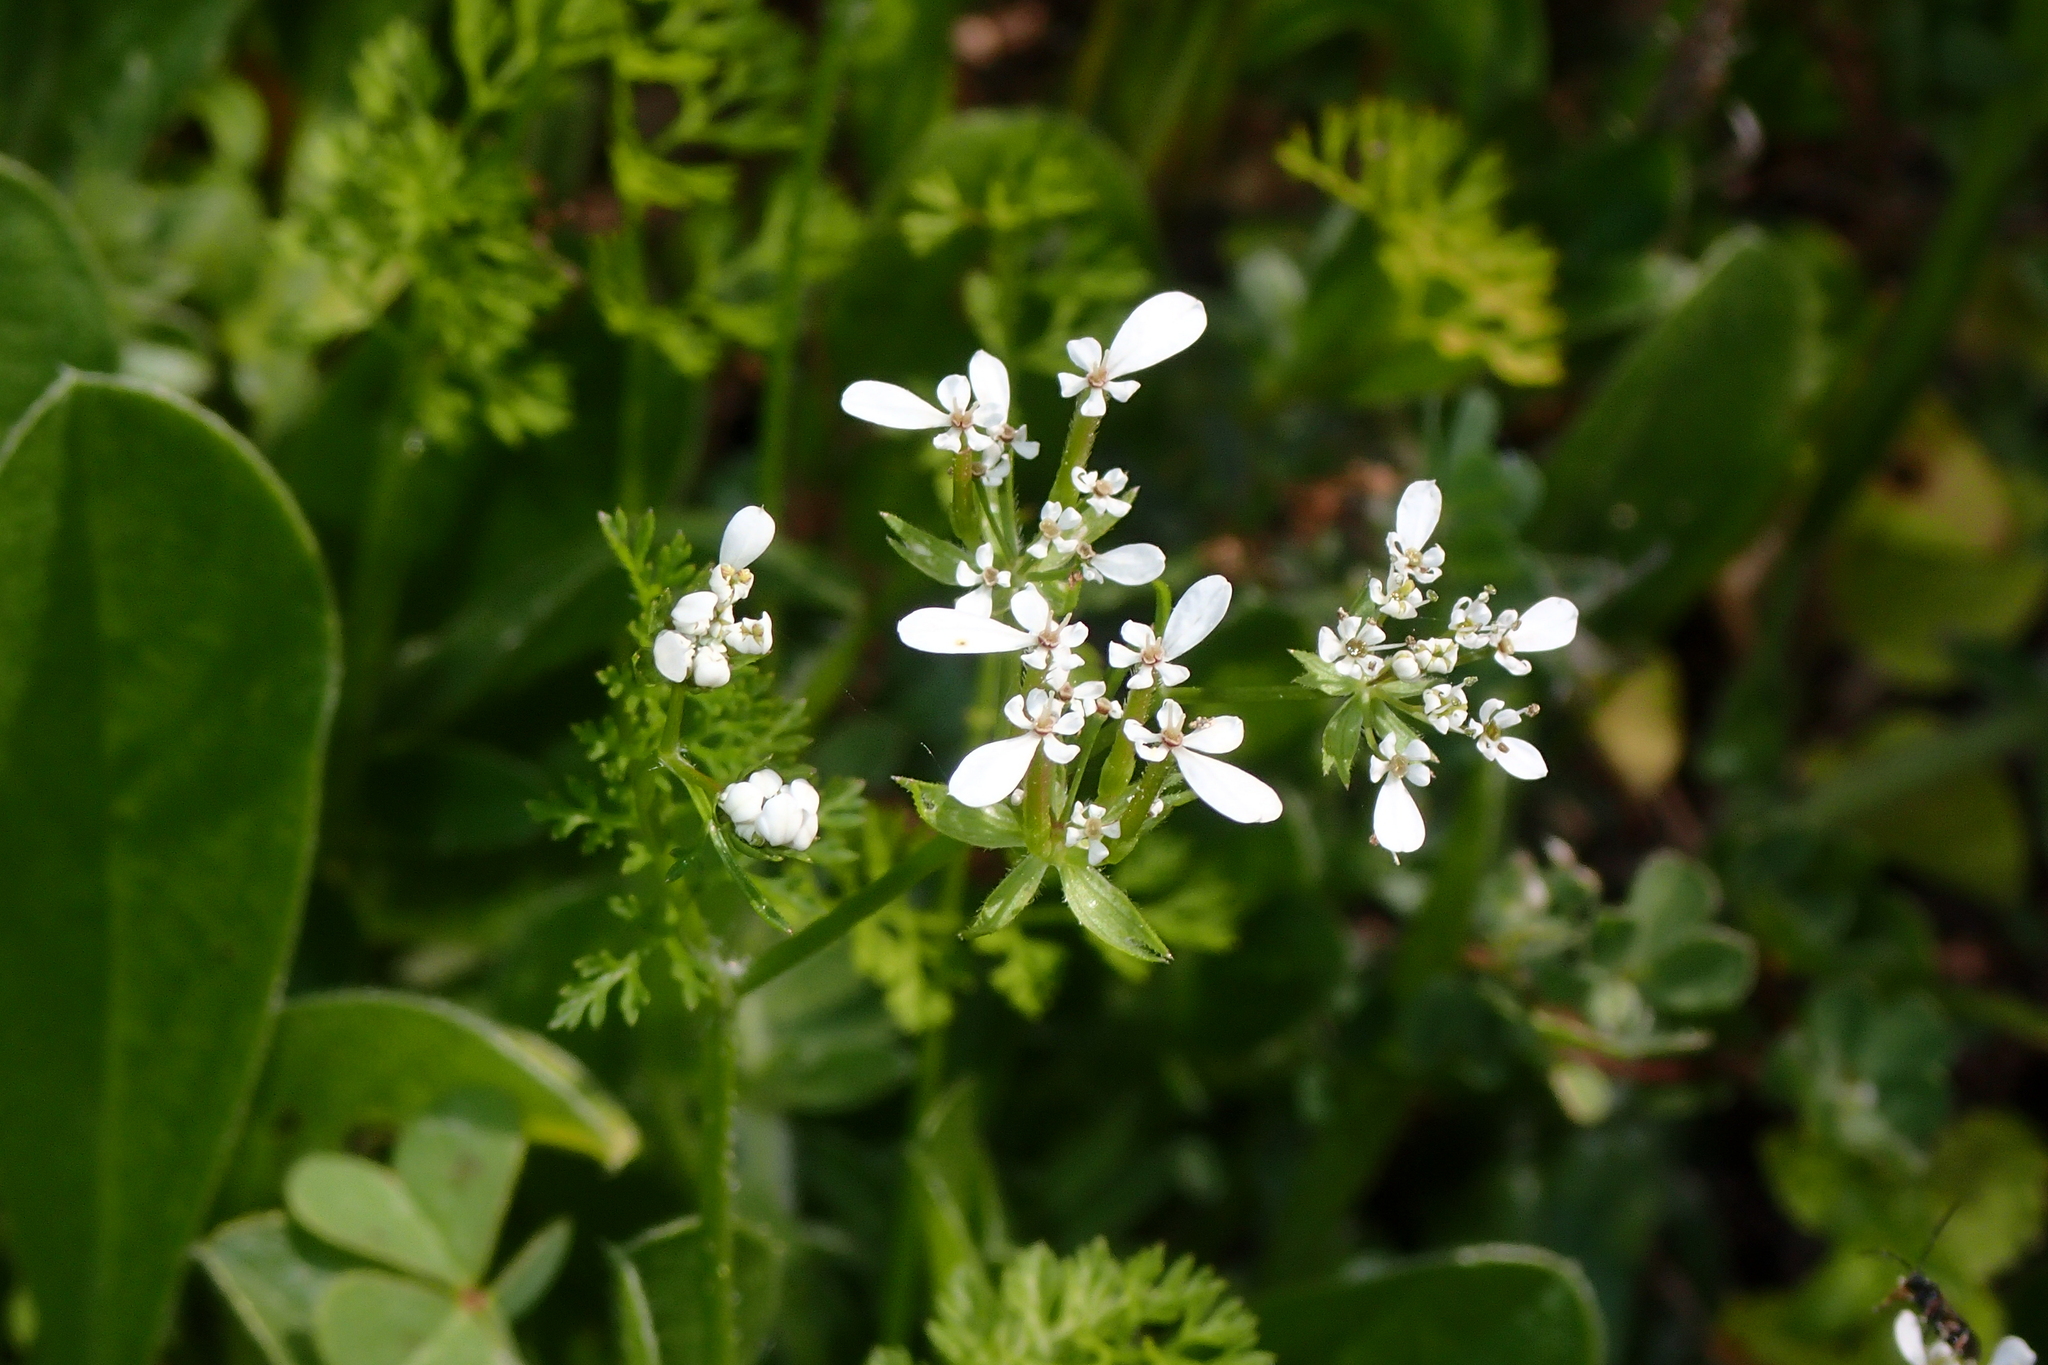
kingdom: Plantae
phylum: Tracheophyta
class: Magnoliopsida
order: Apiales
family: Apiaceae
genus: Scandix
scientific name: Scandix pecten-veneris
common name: Shepherd's-needle
